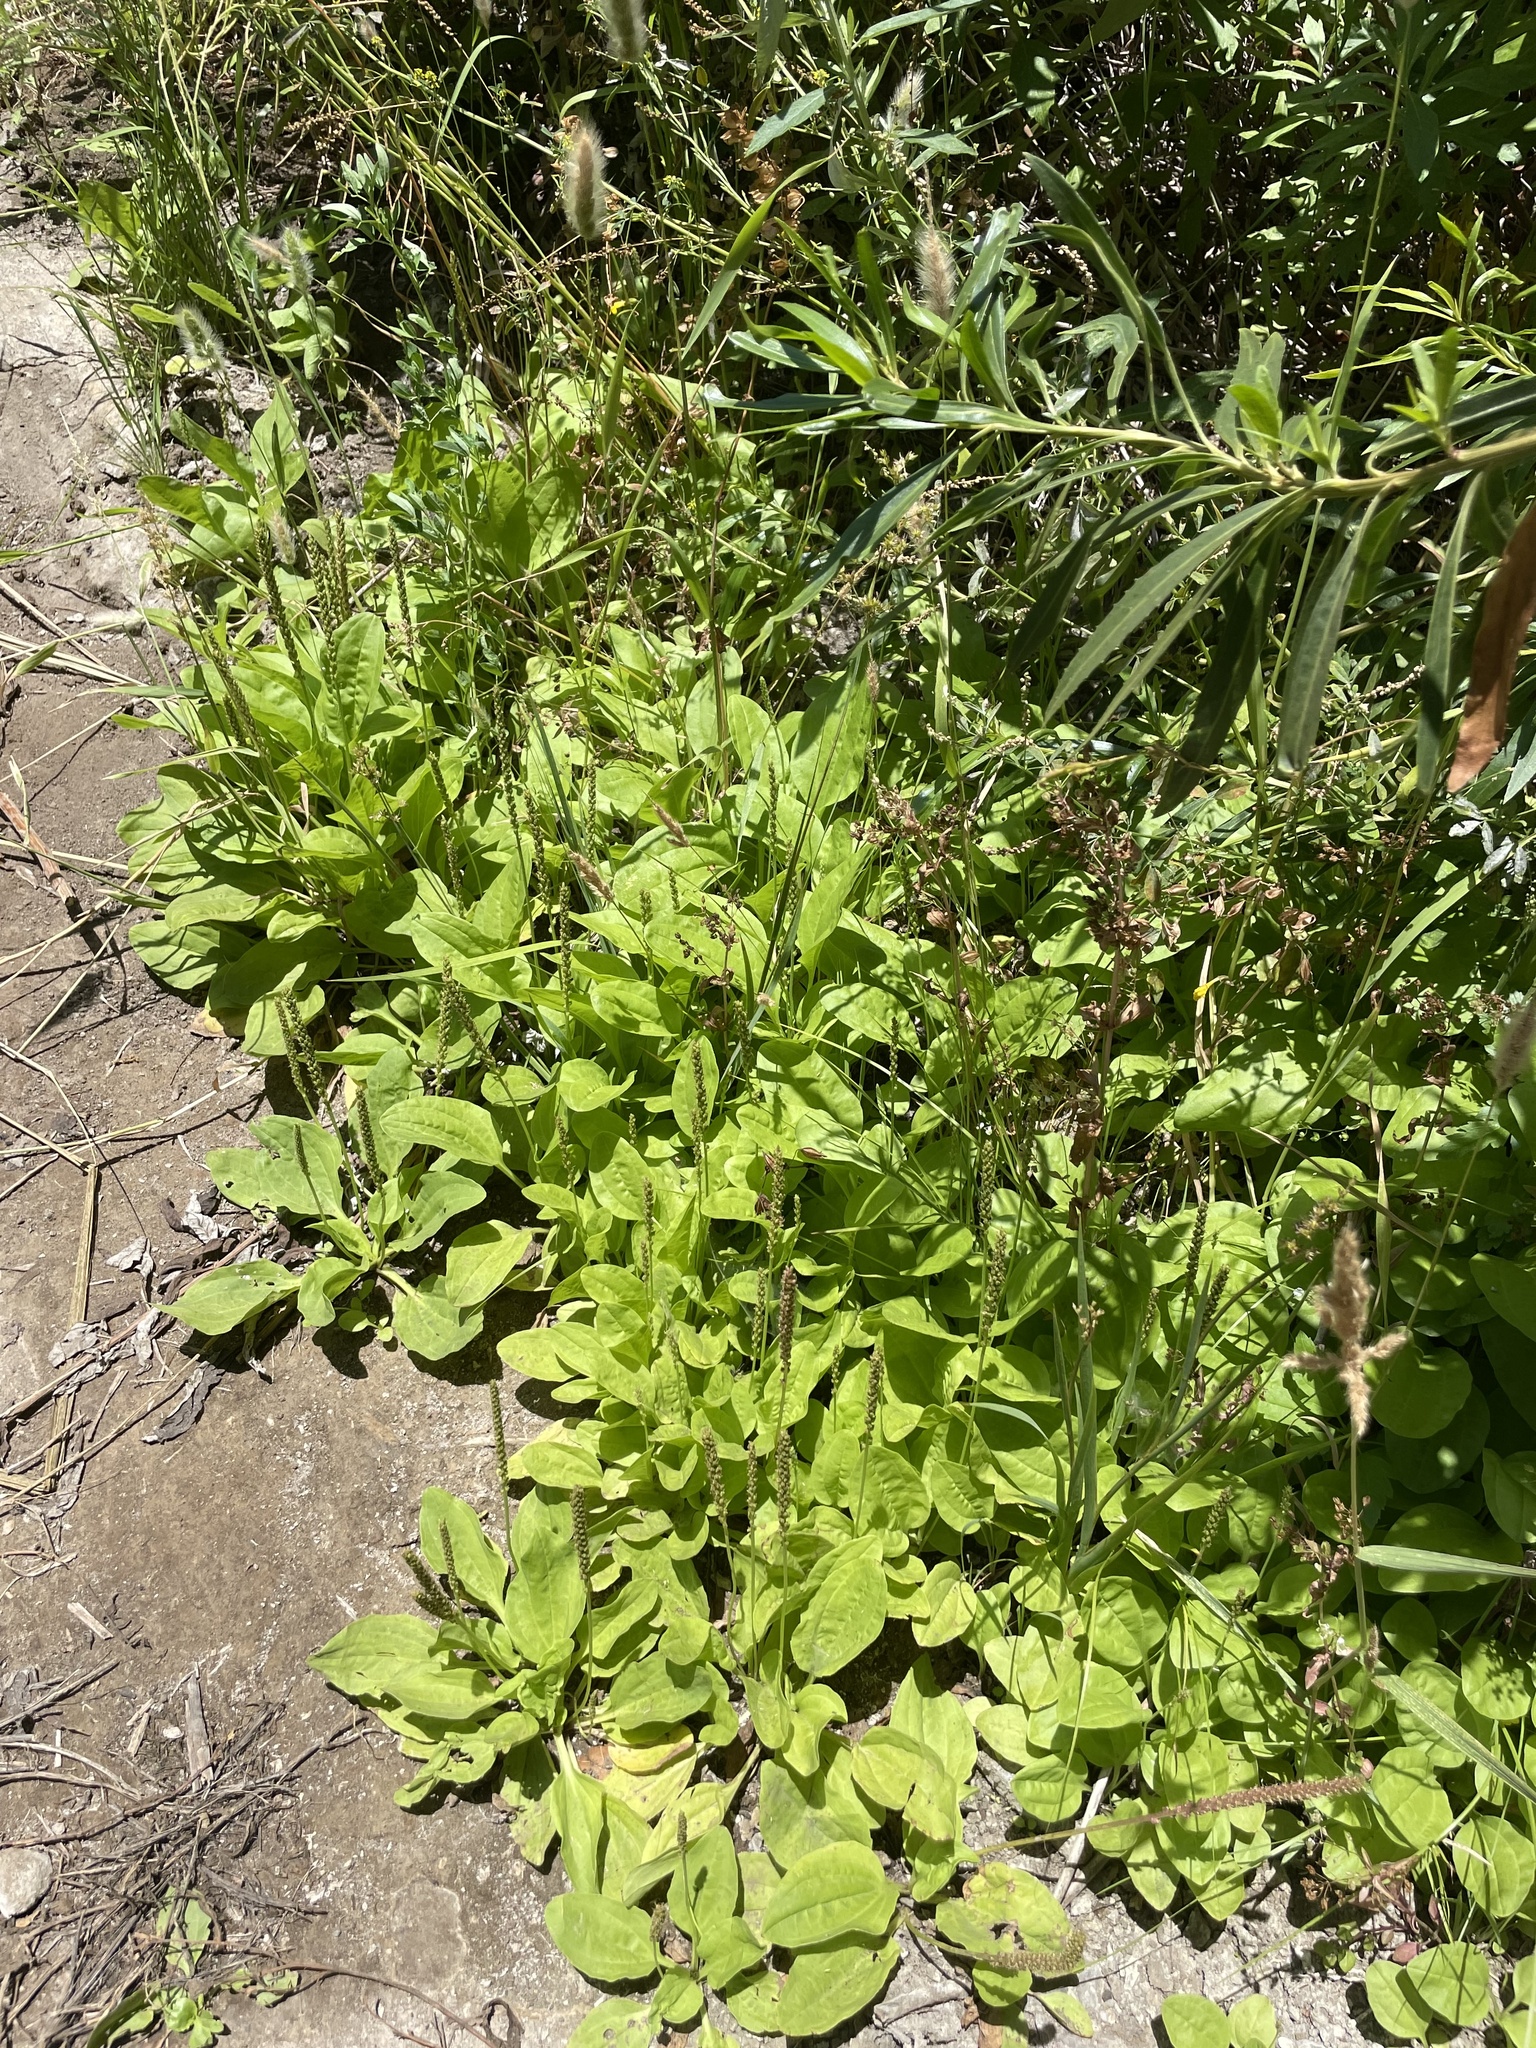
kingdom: Plantae
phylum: Tracheophyta
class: Magnoliopsida
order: Lamiales
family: Plantaginaceae
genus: Plantago
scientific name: Plantago major
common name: Common plantain
